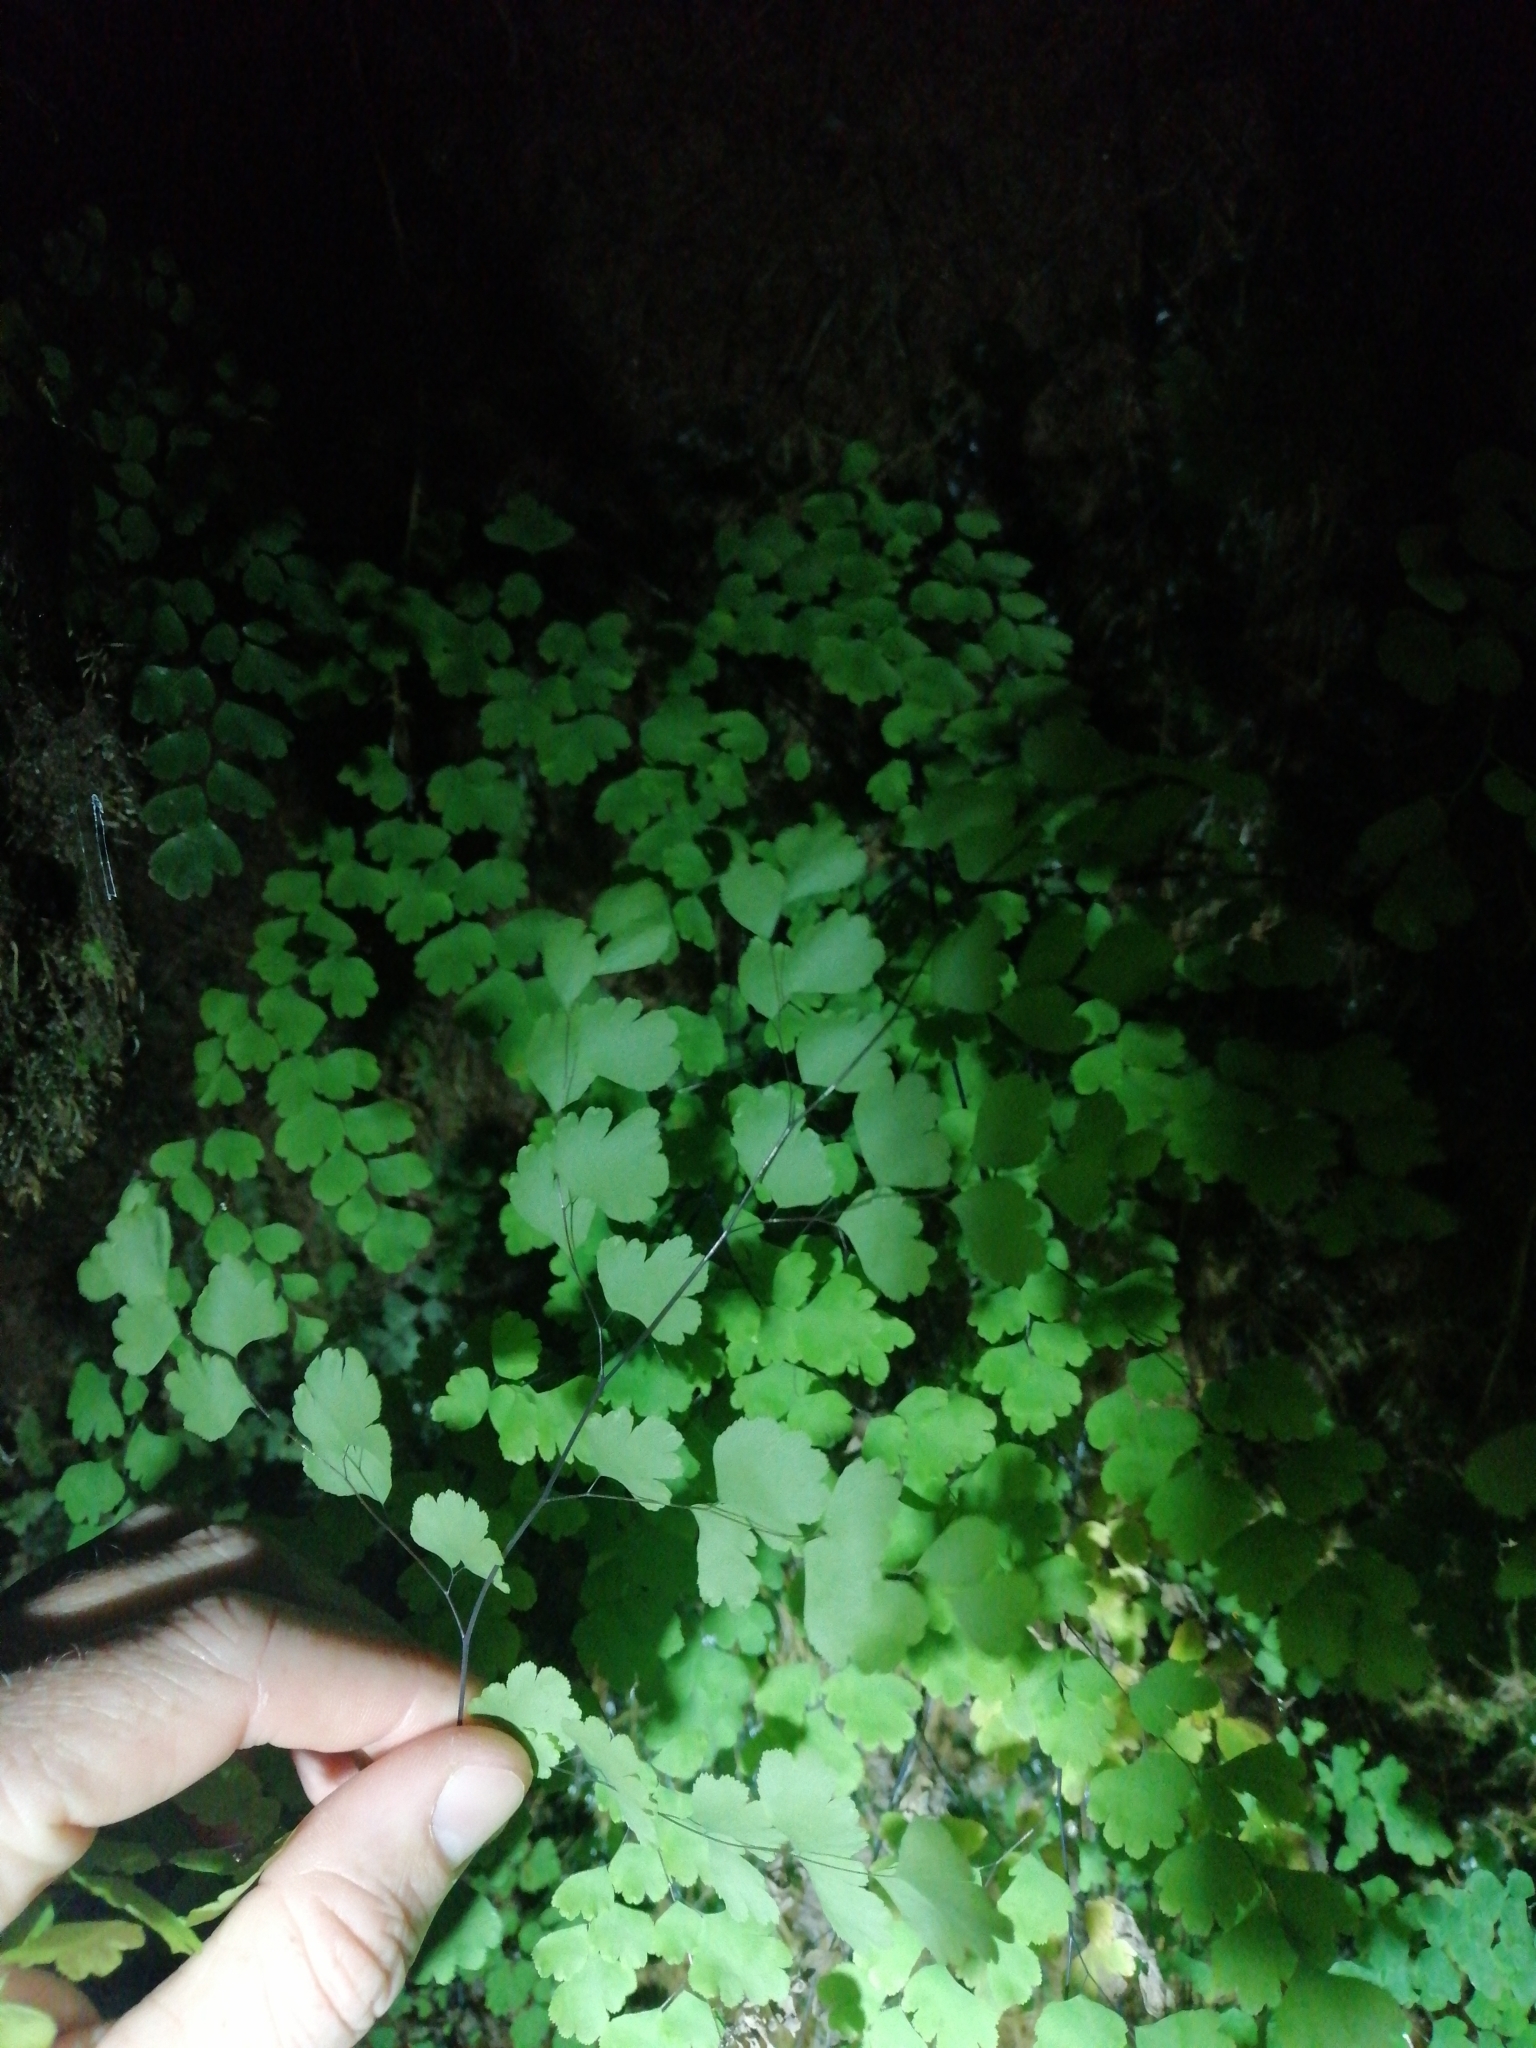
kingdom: Plantae
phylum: Tracheophyta
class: Polypodiopsida
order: Polypodiales
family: Pteridaceae
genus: Adiantum
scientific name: Adiantum raddianum
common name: Delta maidenhair fern
